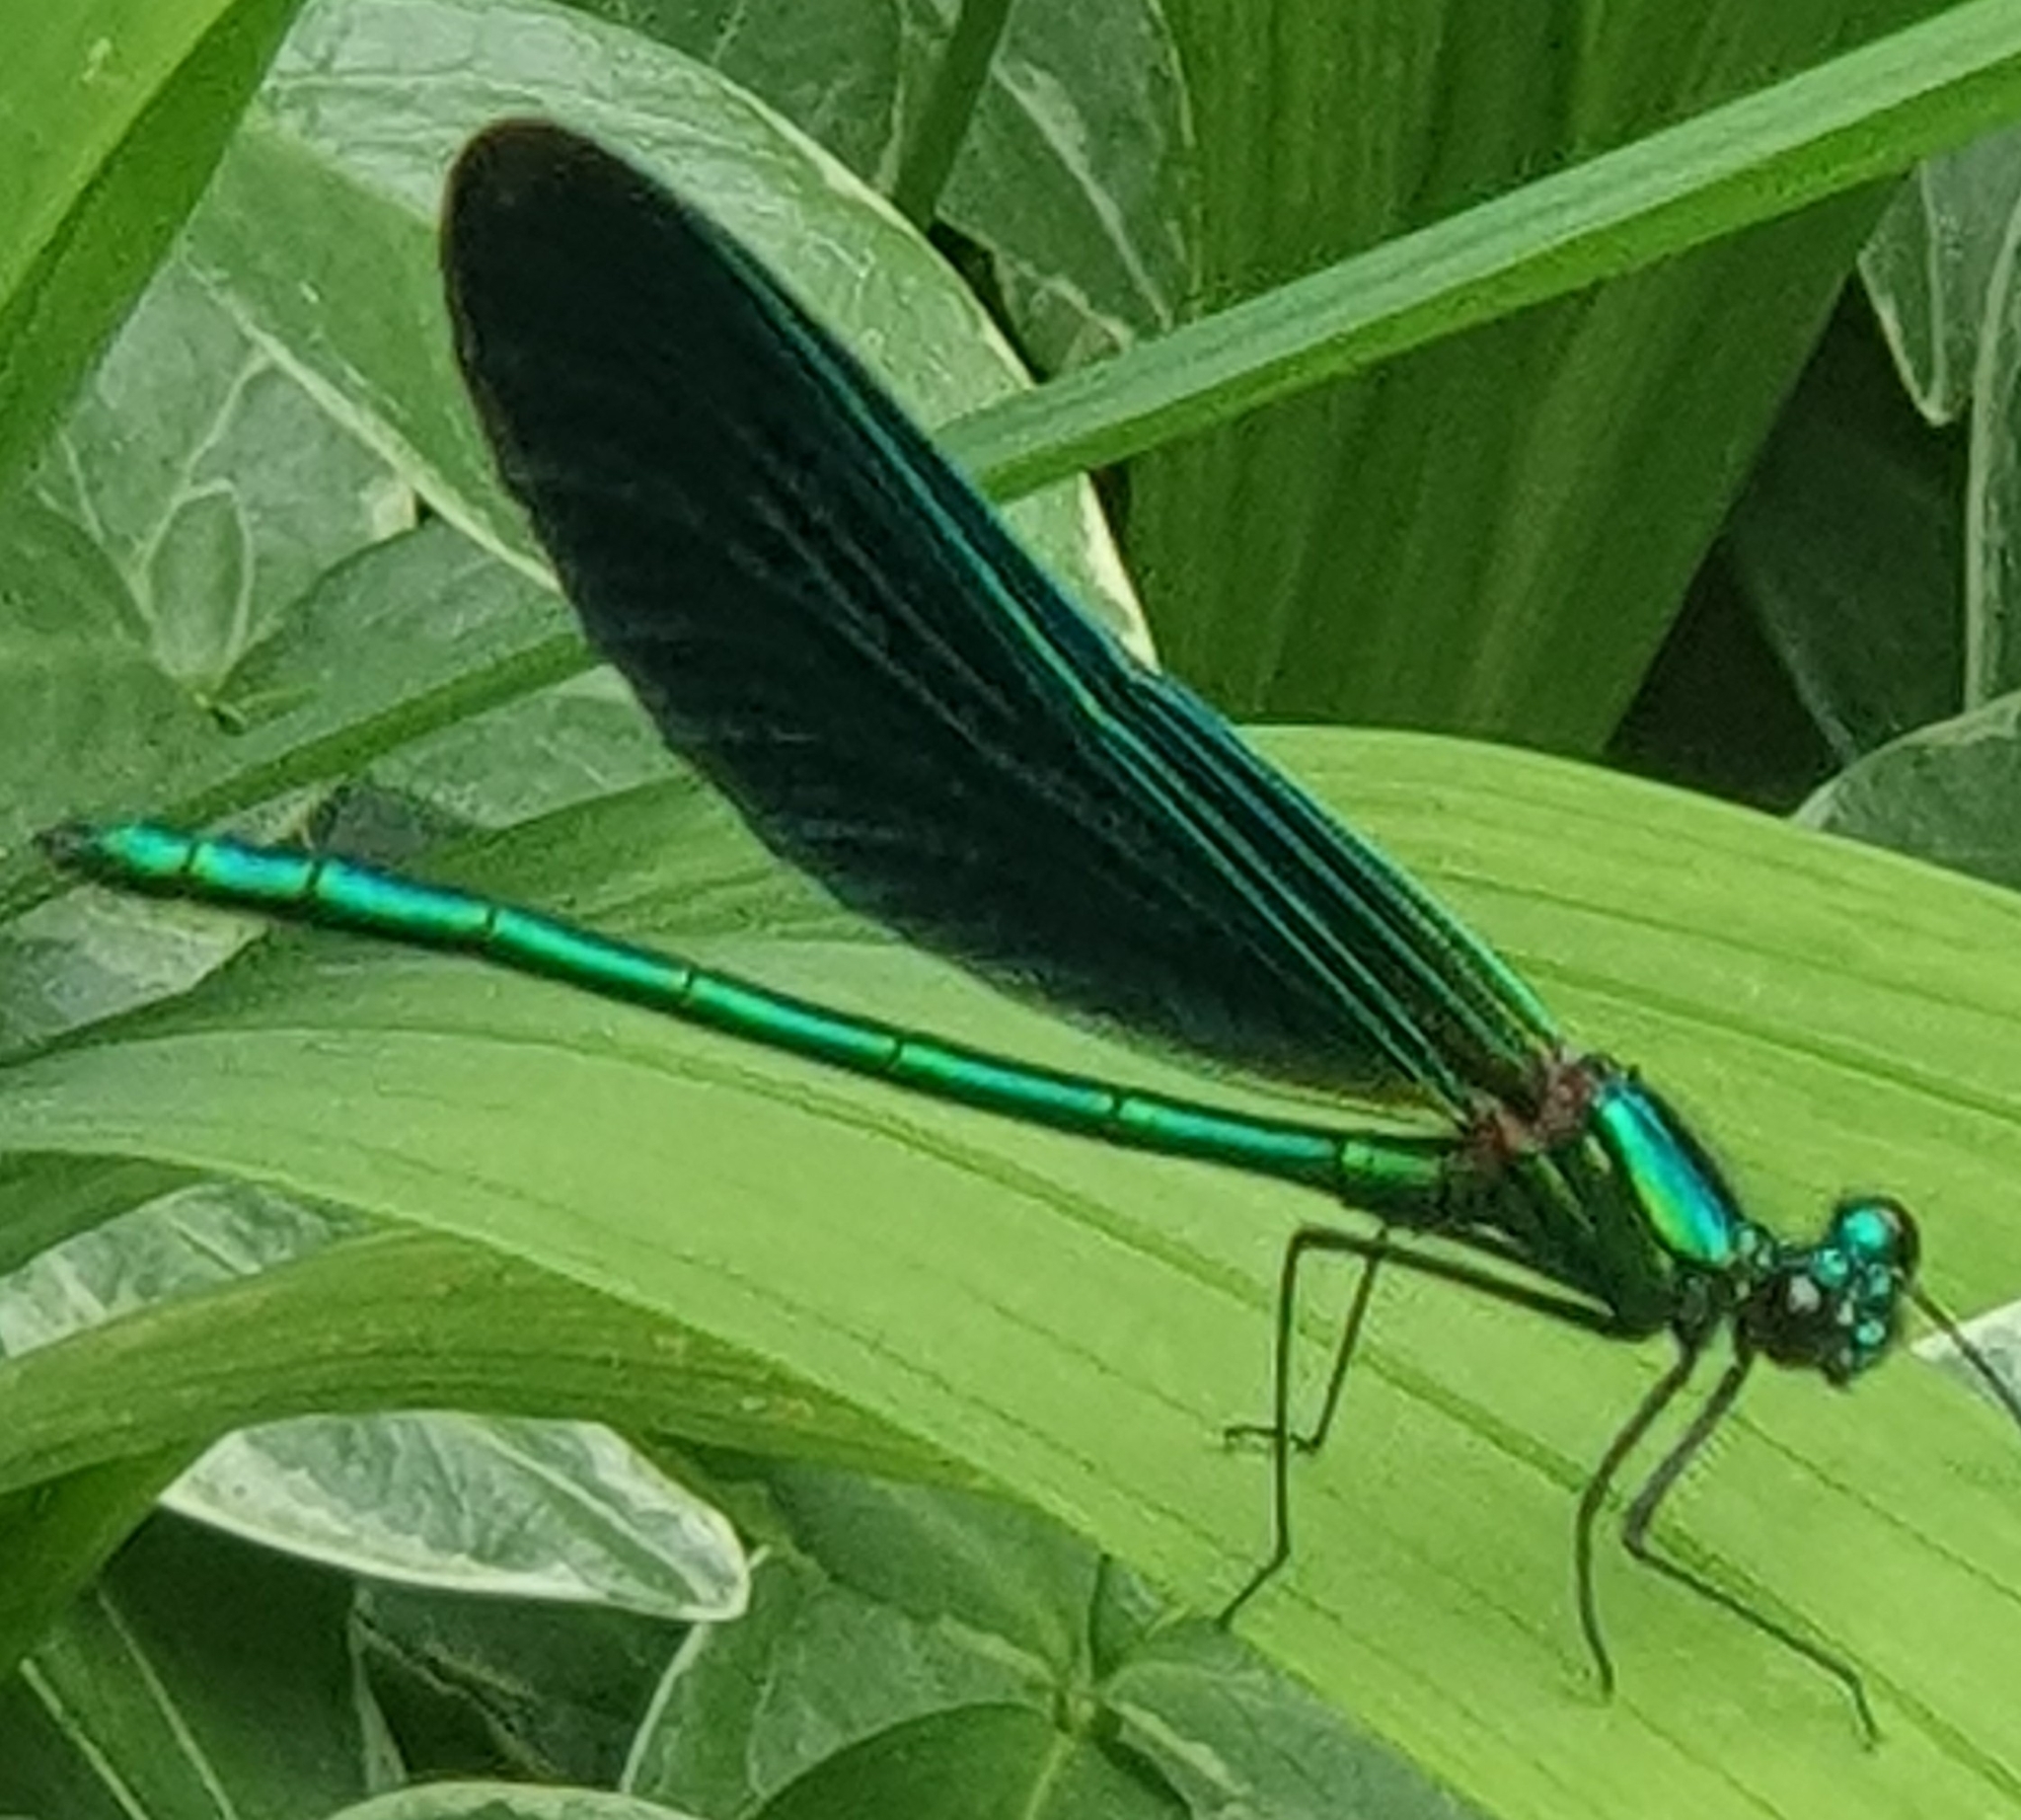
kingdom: Animalia
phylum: Arthropoda
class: Insecta
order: Odonata
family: Calopterygidae
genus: Calopteryx
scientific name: Calopteryx virgo
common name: Beautiful demoiselle
